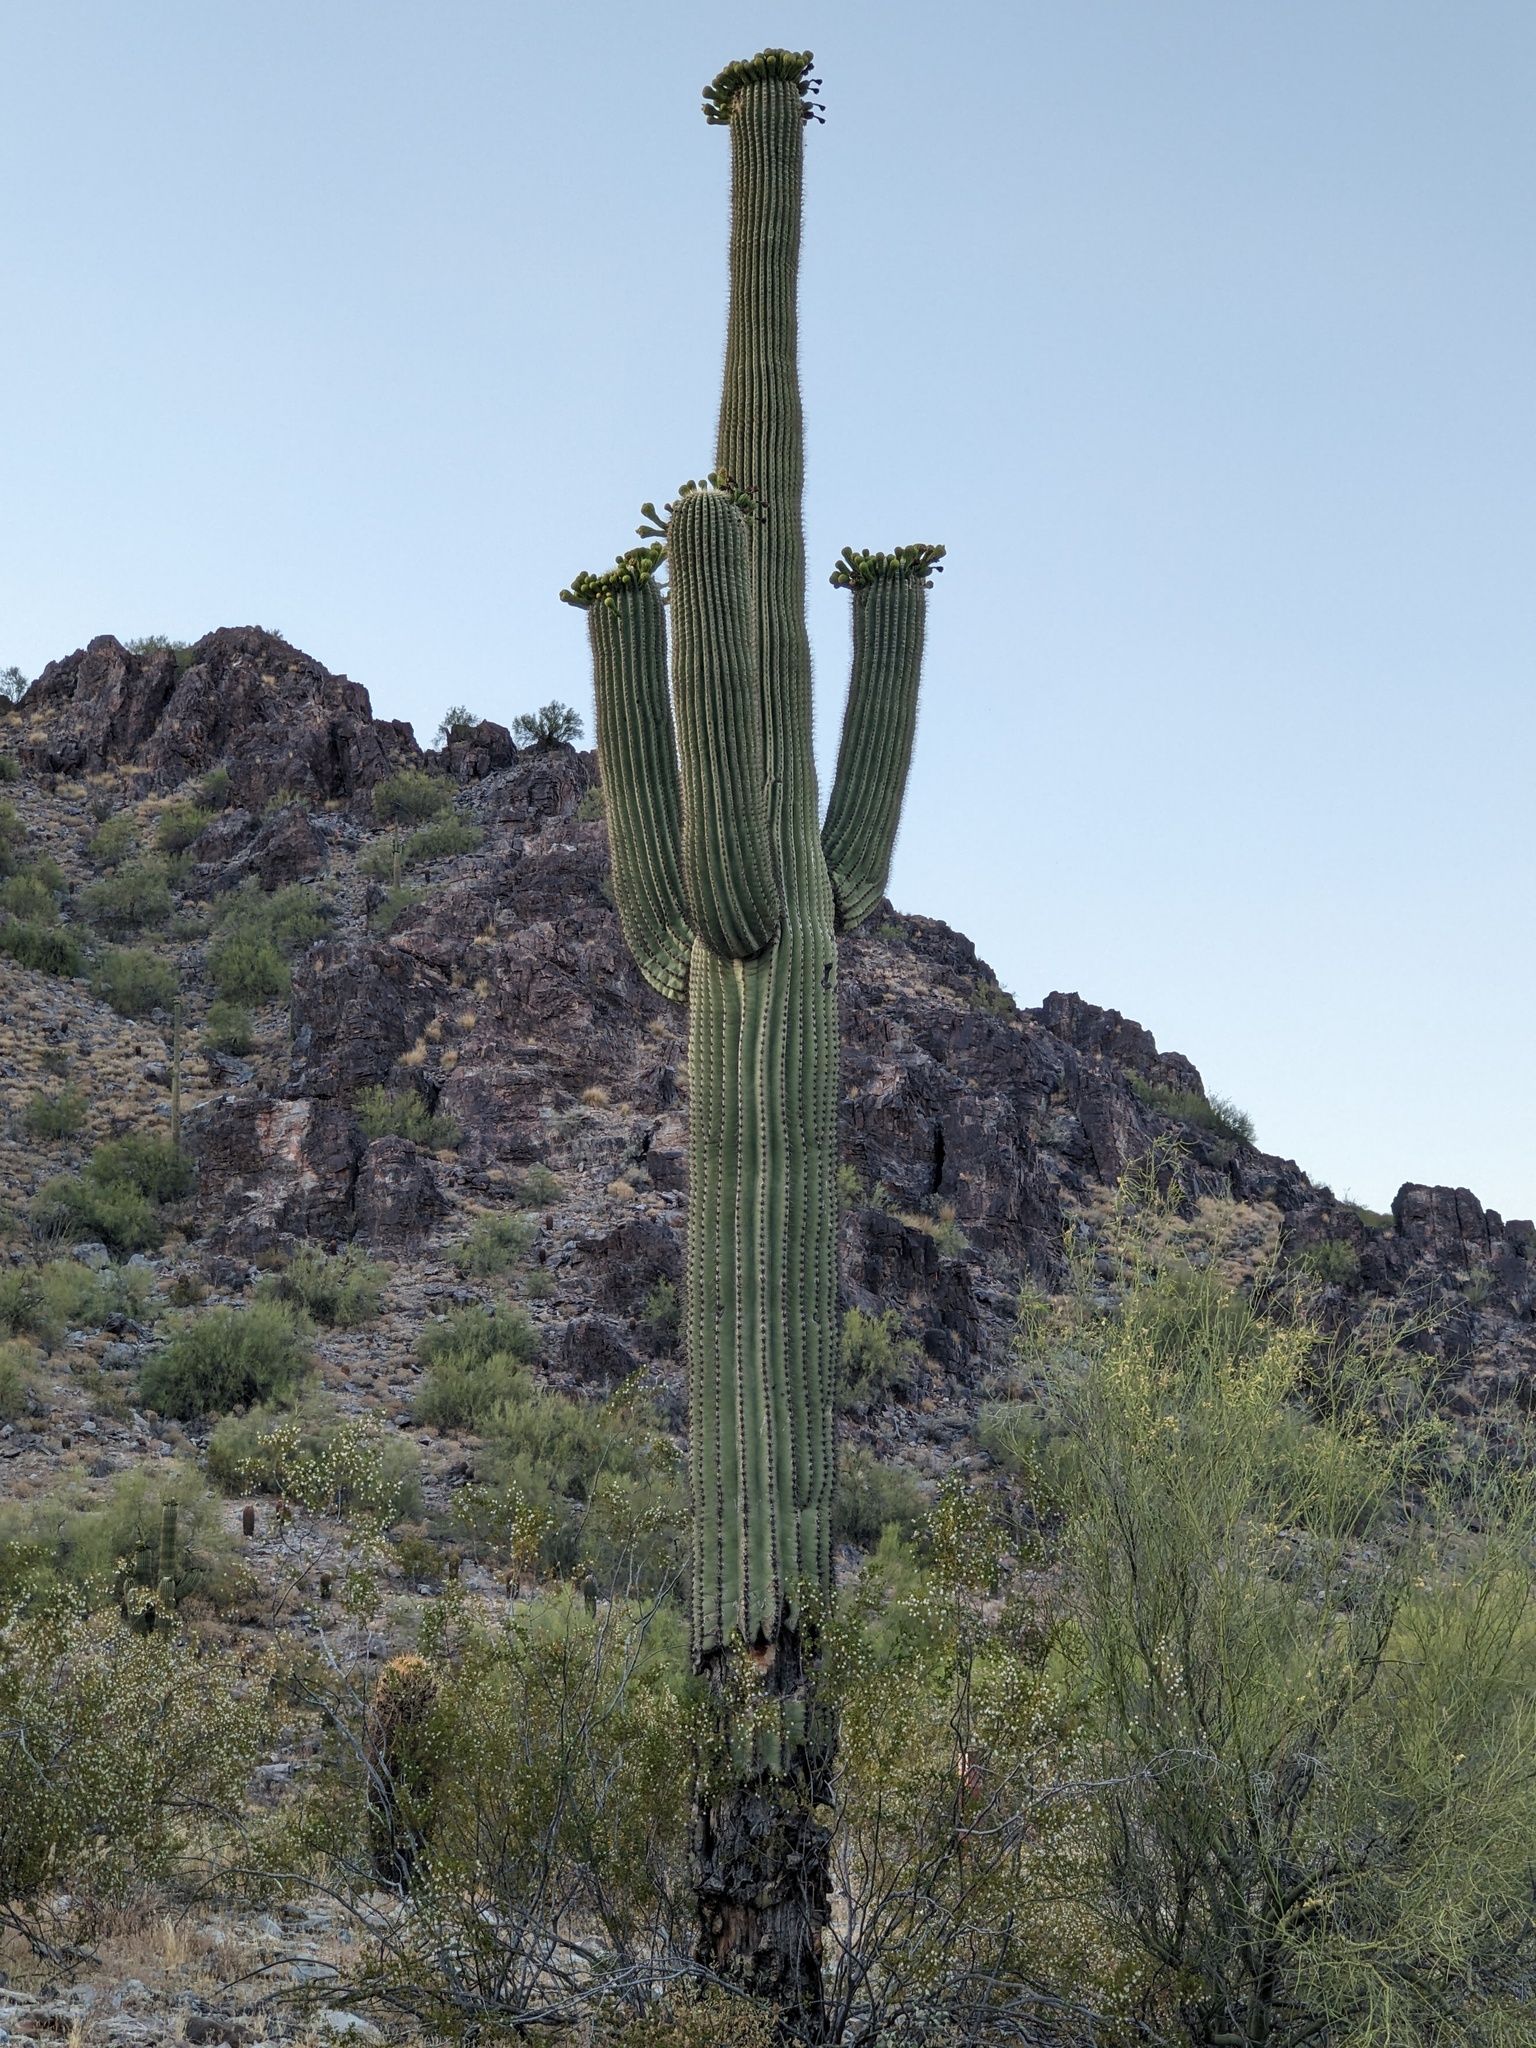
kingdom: Plantae
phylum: Tracheophyta
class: Magnoliopsida
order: Caryophyllales
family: Cactaceae
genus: Carnegiea
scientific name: Carnegiea gigantea
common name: Saguaro
